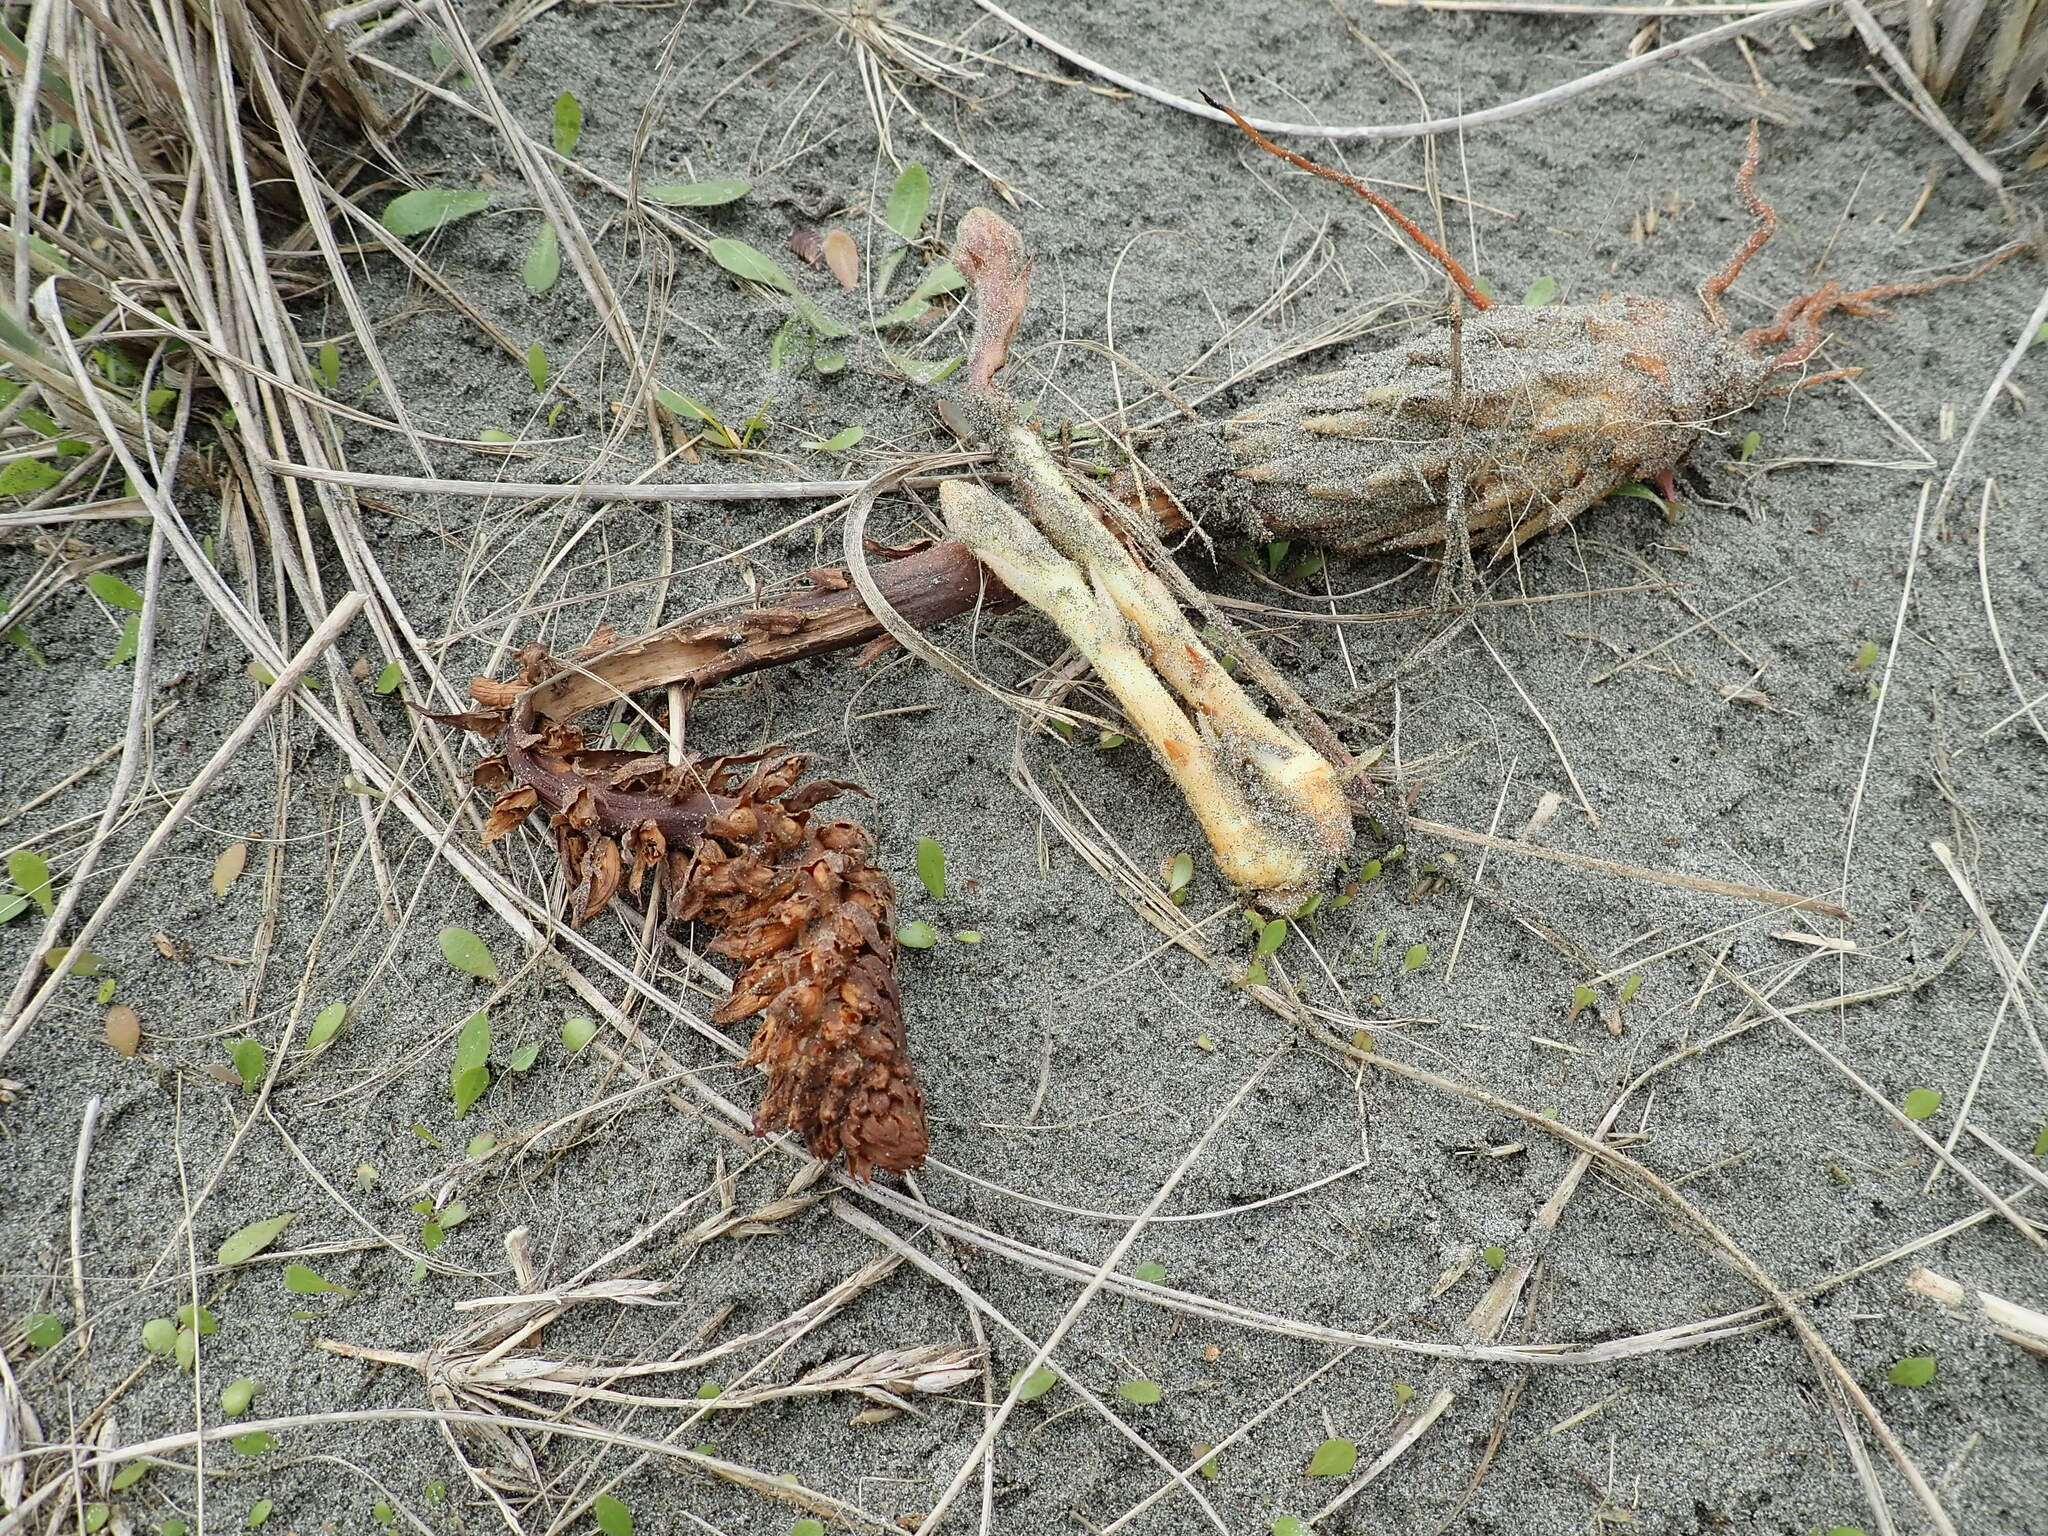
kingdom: Plantae
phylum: Tracheophyta
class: Magnoliopsida
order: Lamiales
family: Orobanchaceae
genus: Orobanche
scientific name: Orobanche minor
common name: Common broomrape
